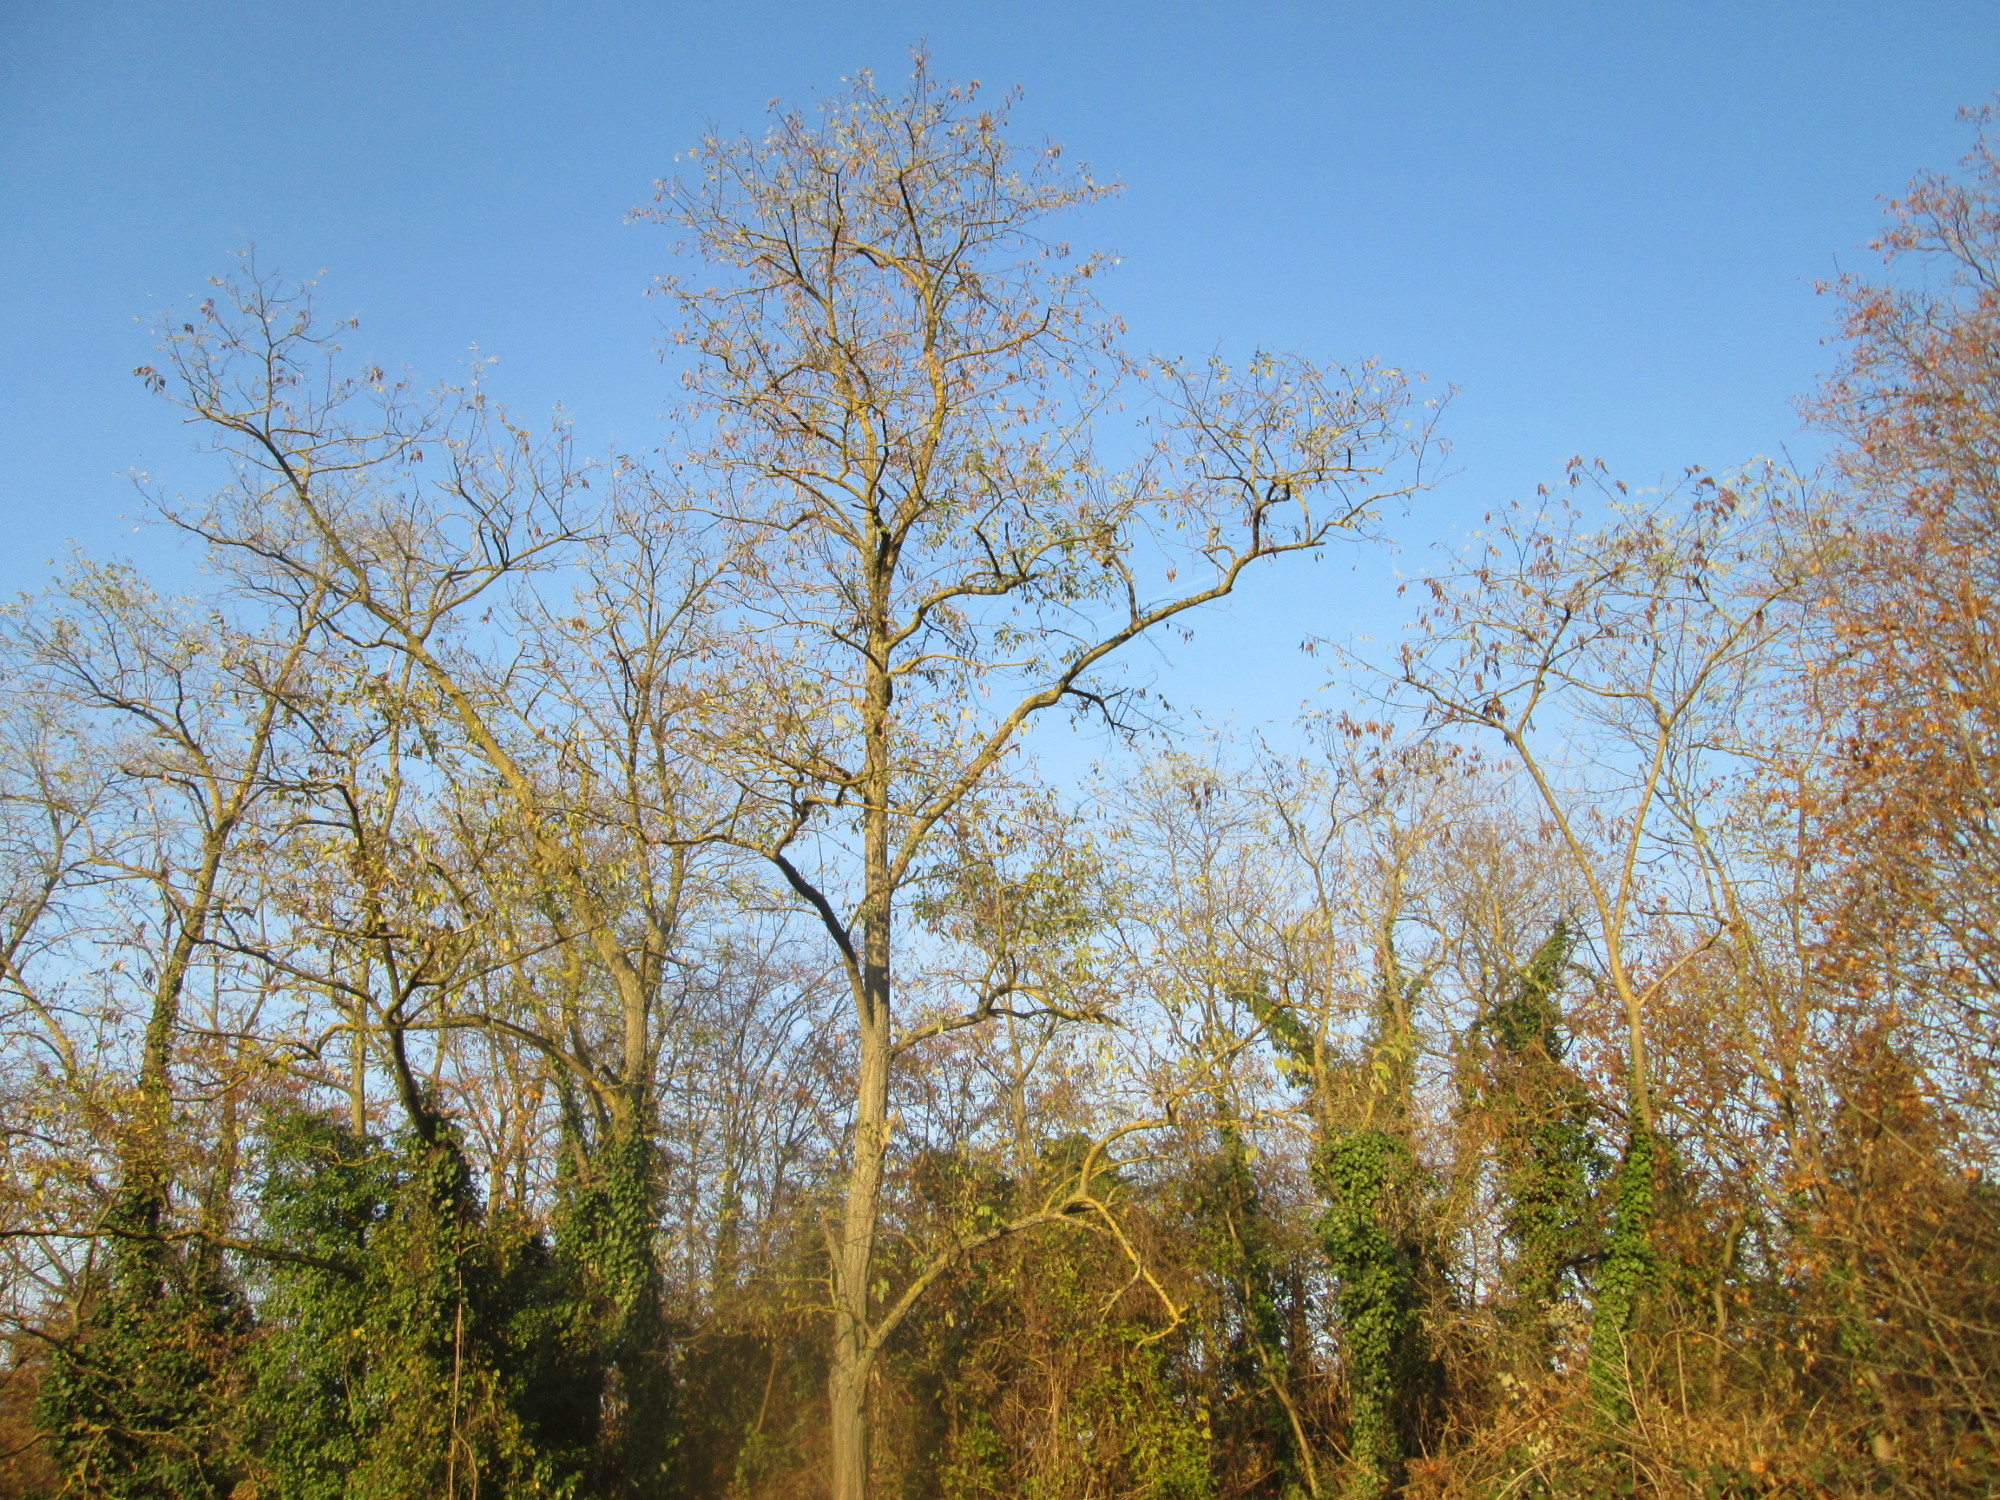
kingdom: Plantae
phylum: Tracheophyta
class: Magnoliopsida
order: Fabales
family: Fabaceae
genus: Robinia
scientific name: Robinia pseudoacacia
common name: Black locust
